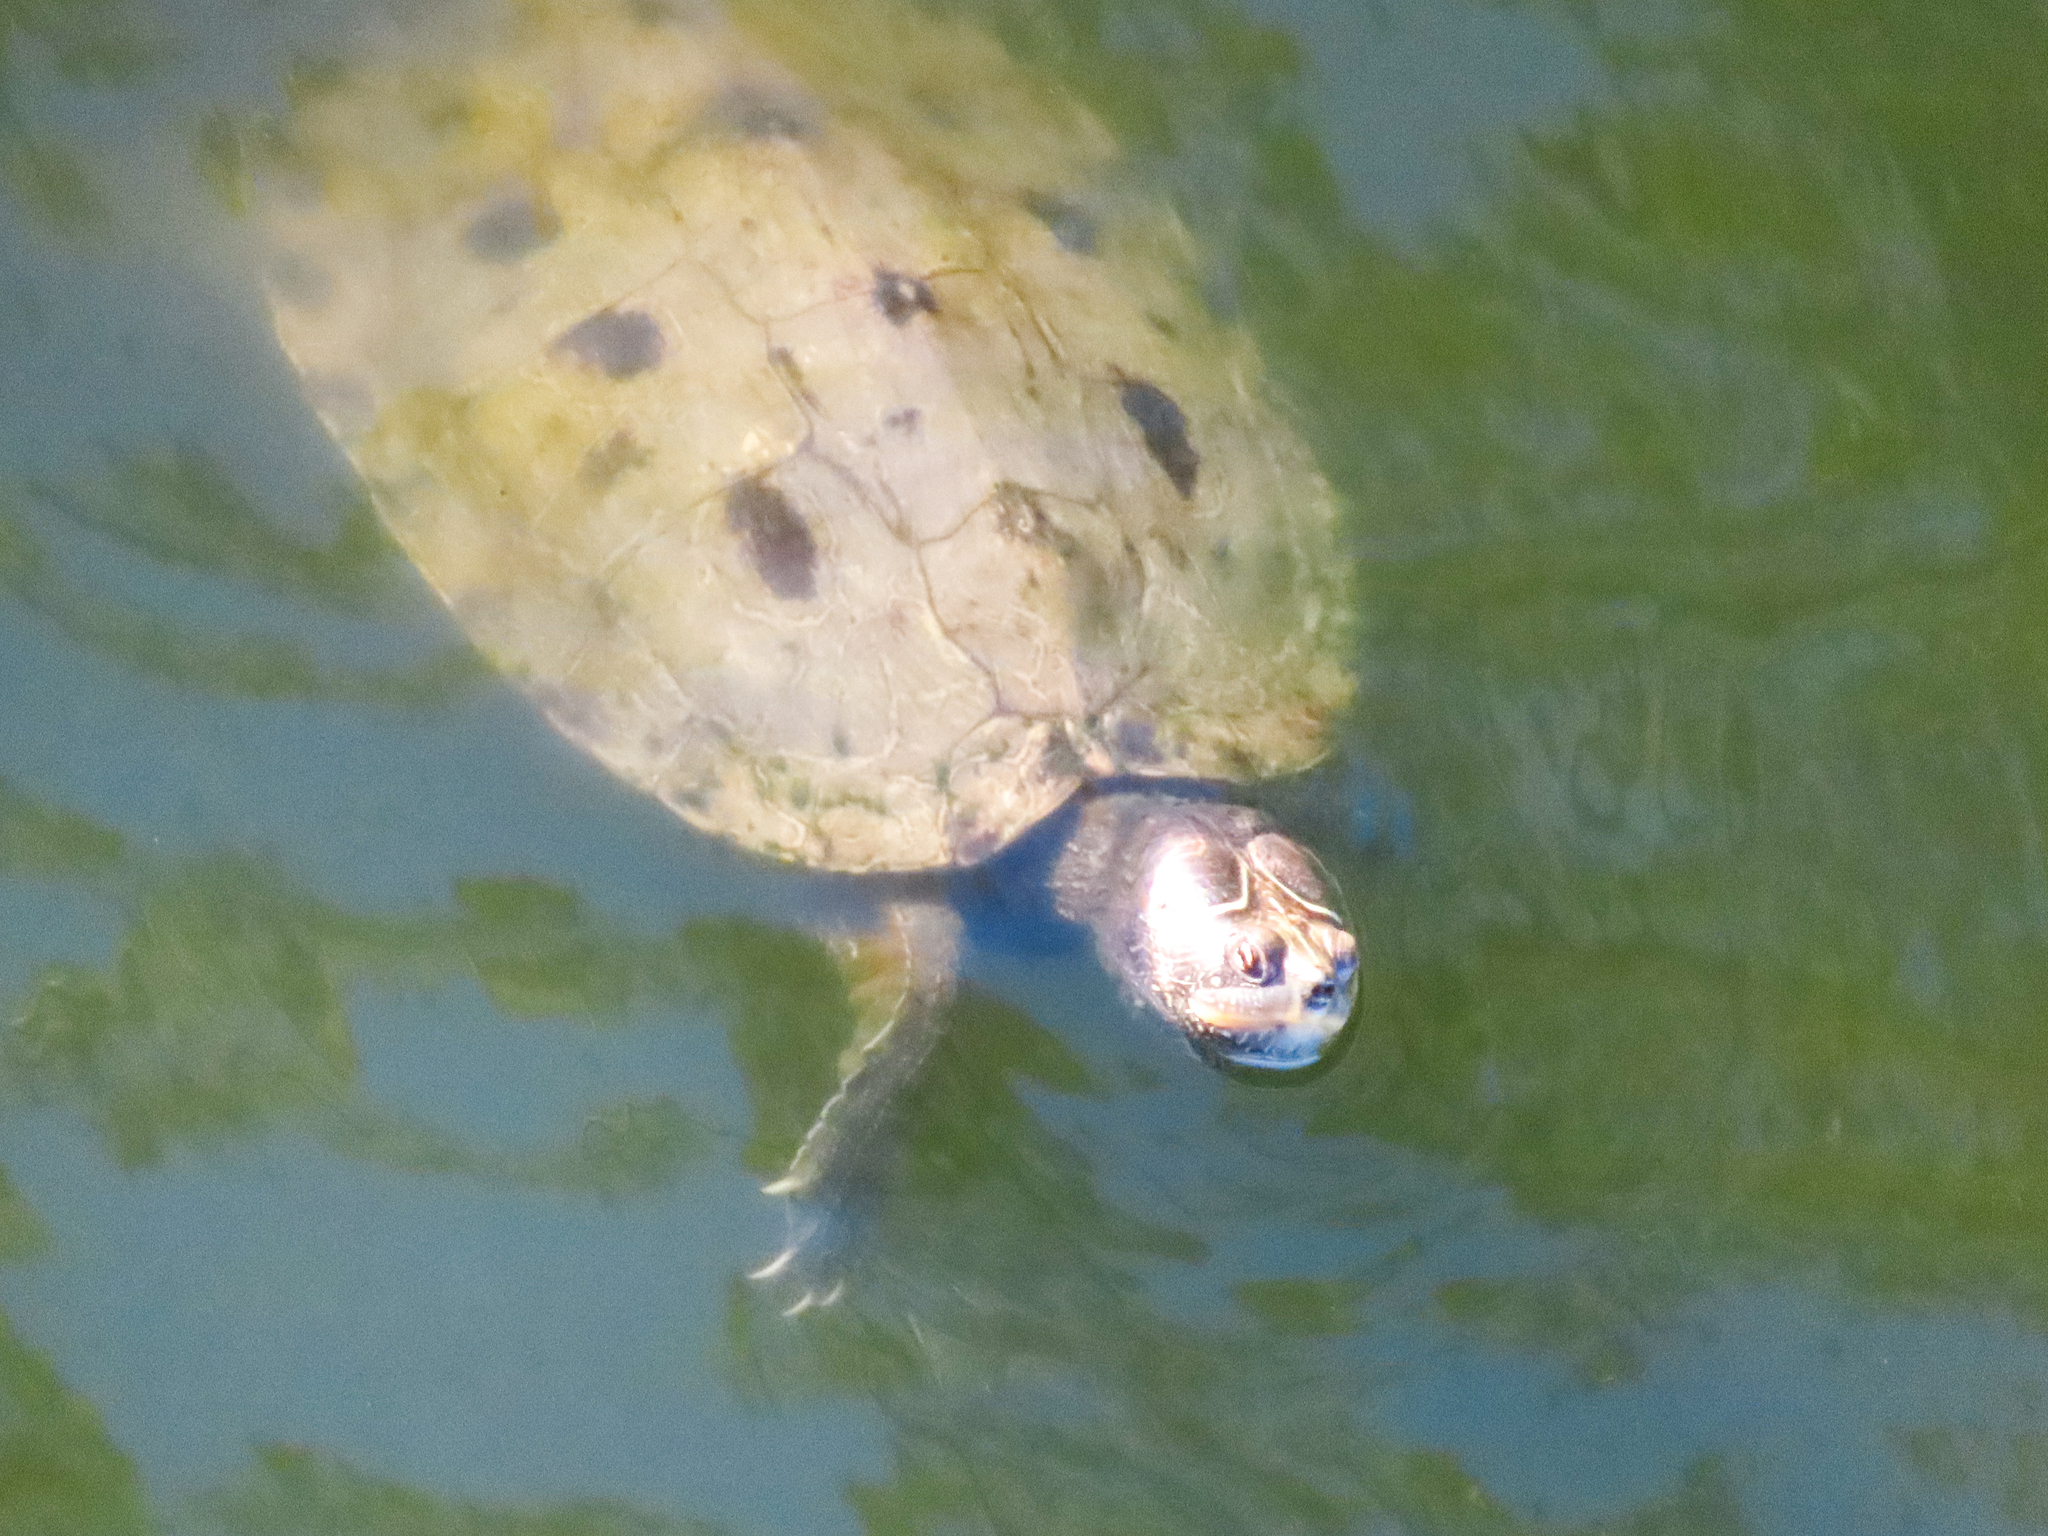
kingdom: Animalia
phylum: Chordata
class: Testudines
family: Emydidae
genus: Graptemys
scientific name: Graptemys pseudogeographica
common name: False map turtle
